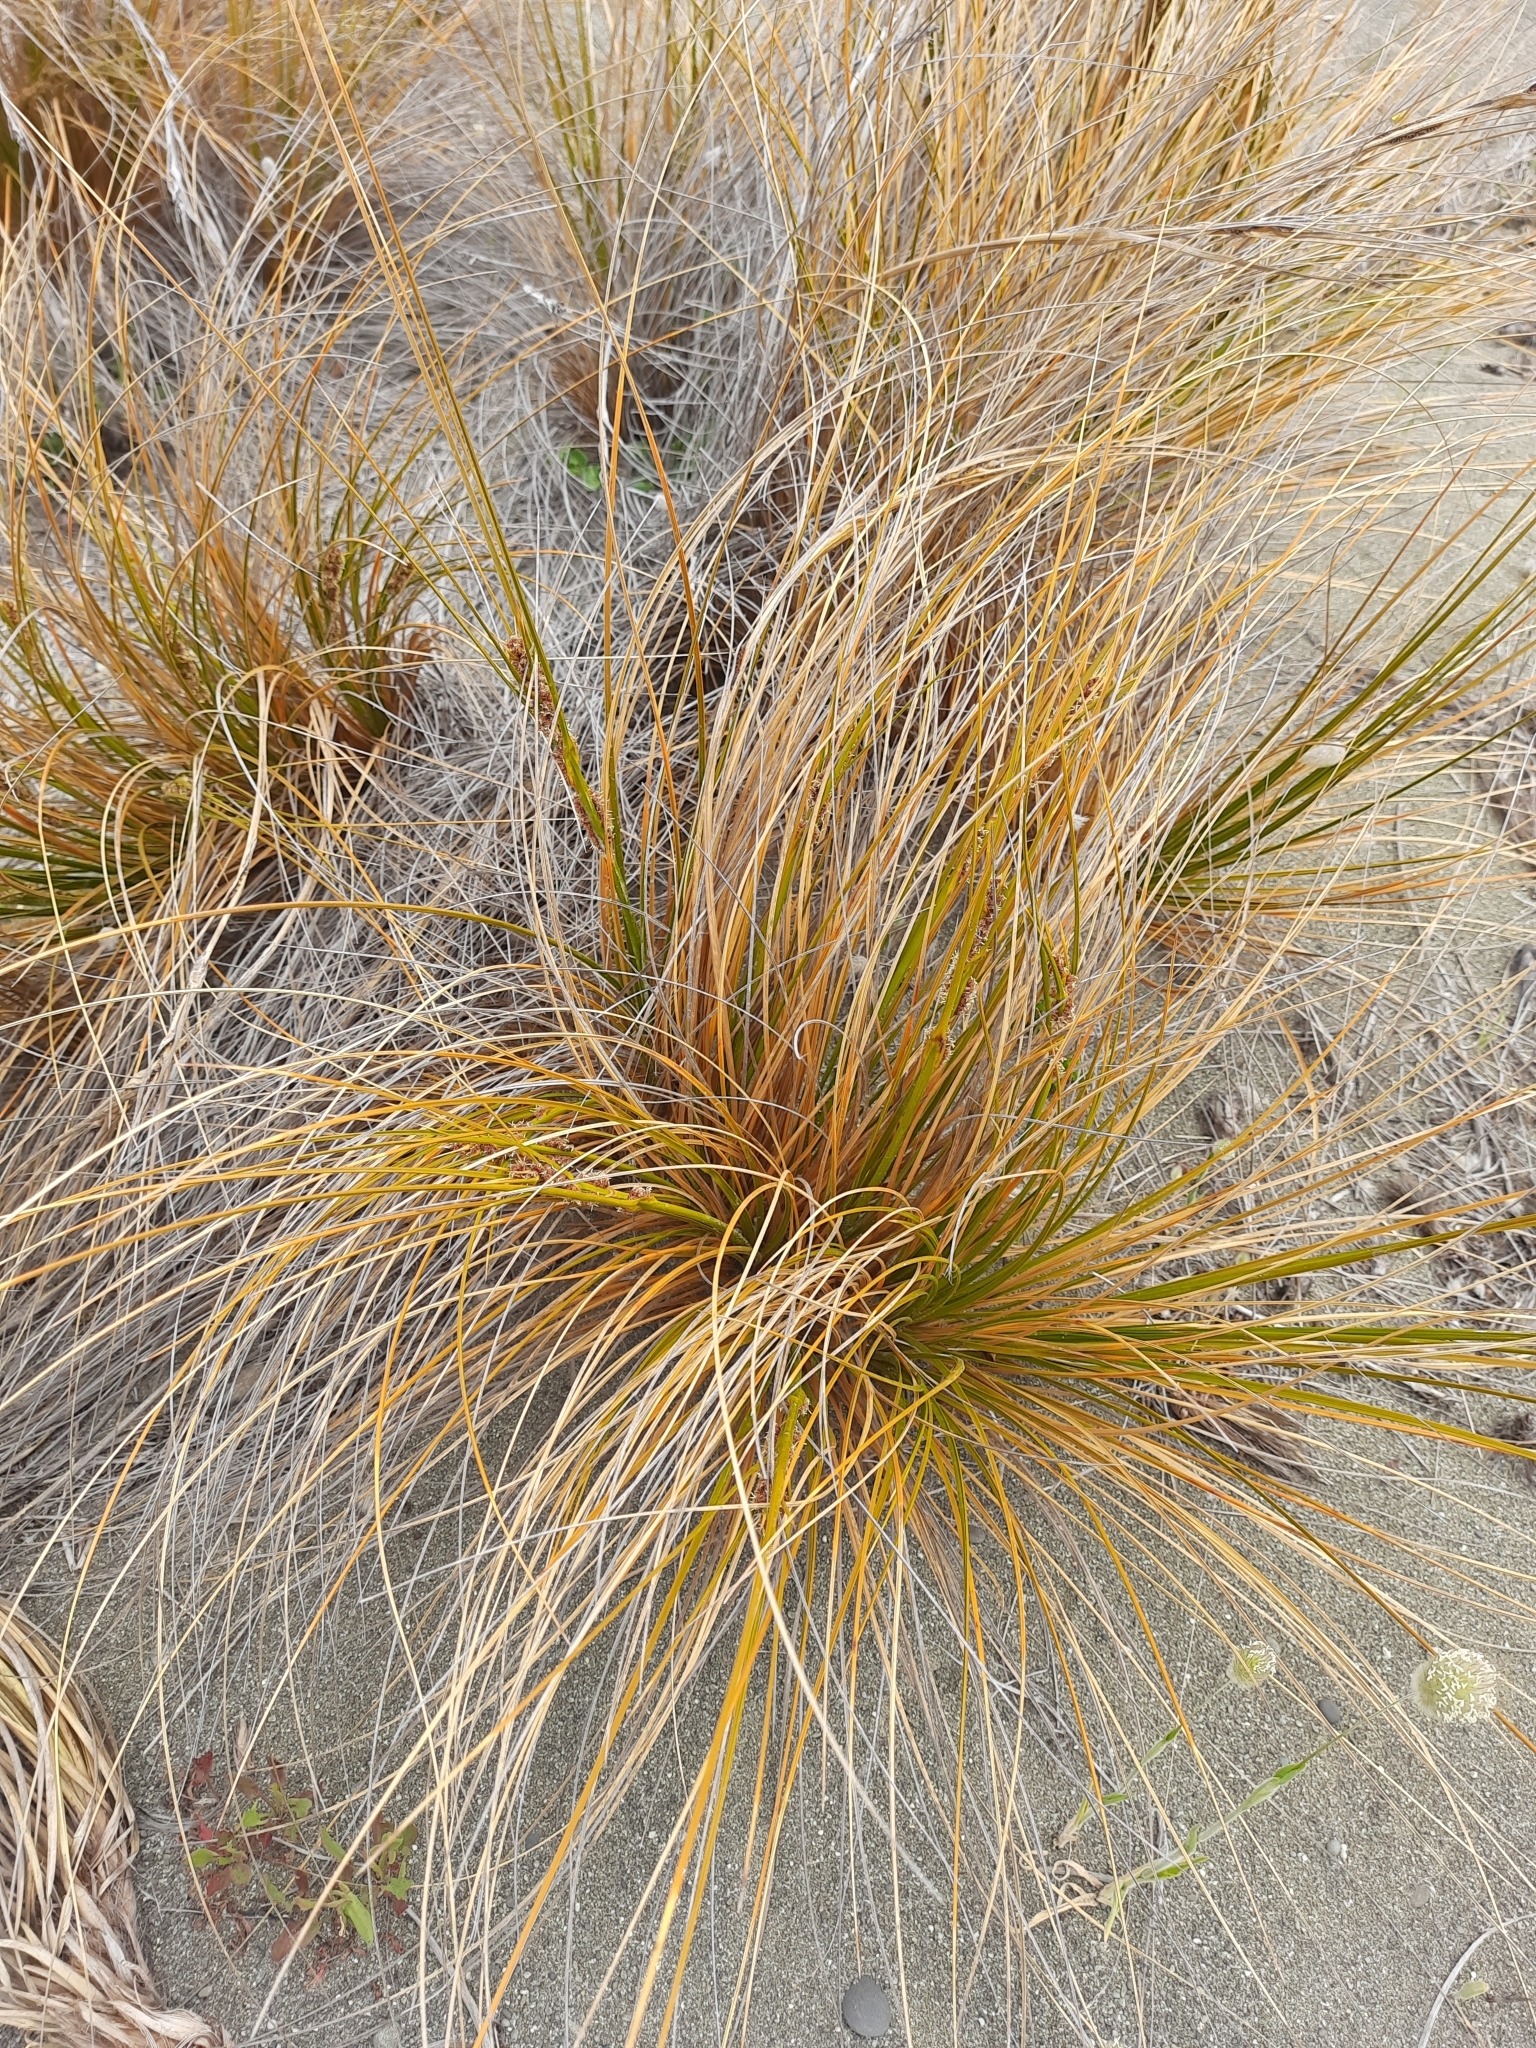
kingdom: Plantae
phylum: Tracheophyta
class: Liliopsida
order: Poales
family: Cyperaceae
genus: Ficinia
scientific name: Ficinia spiralis
